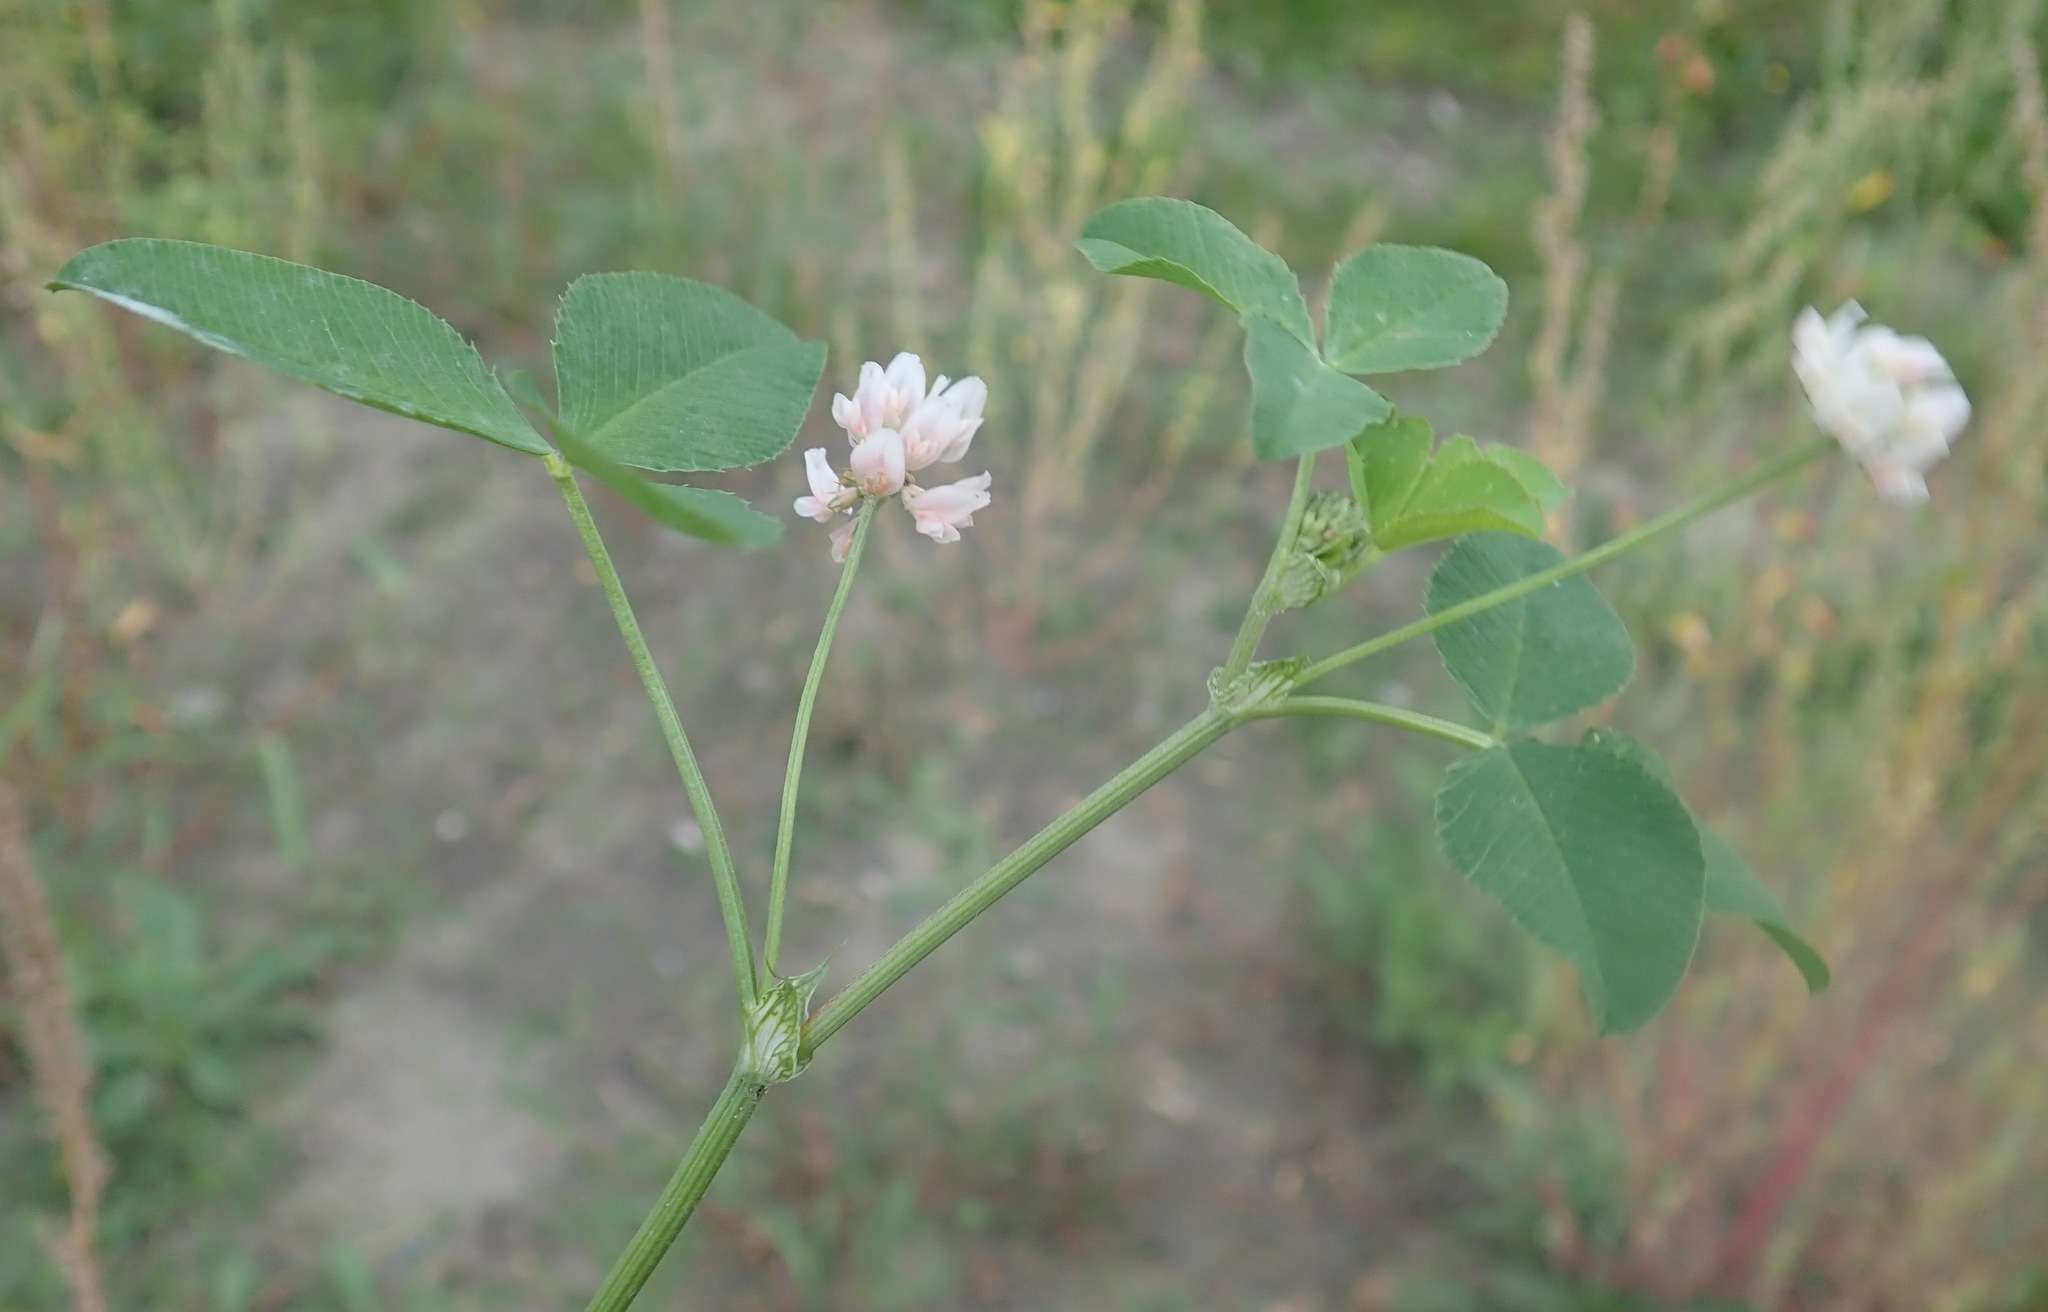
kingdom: Plantae
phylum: Tracheophyta
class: Magnoliopsida
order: Fabales
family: Fabaceae
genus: Trifolium
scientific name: Trifolium hybridum
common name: Alsike clover
